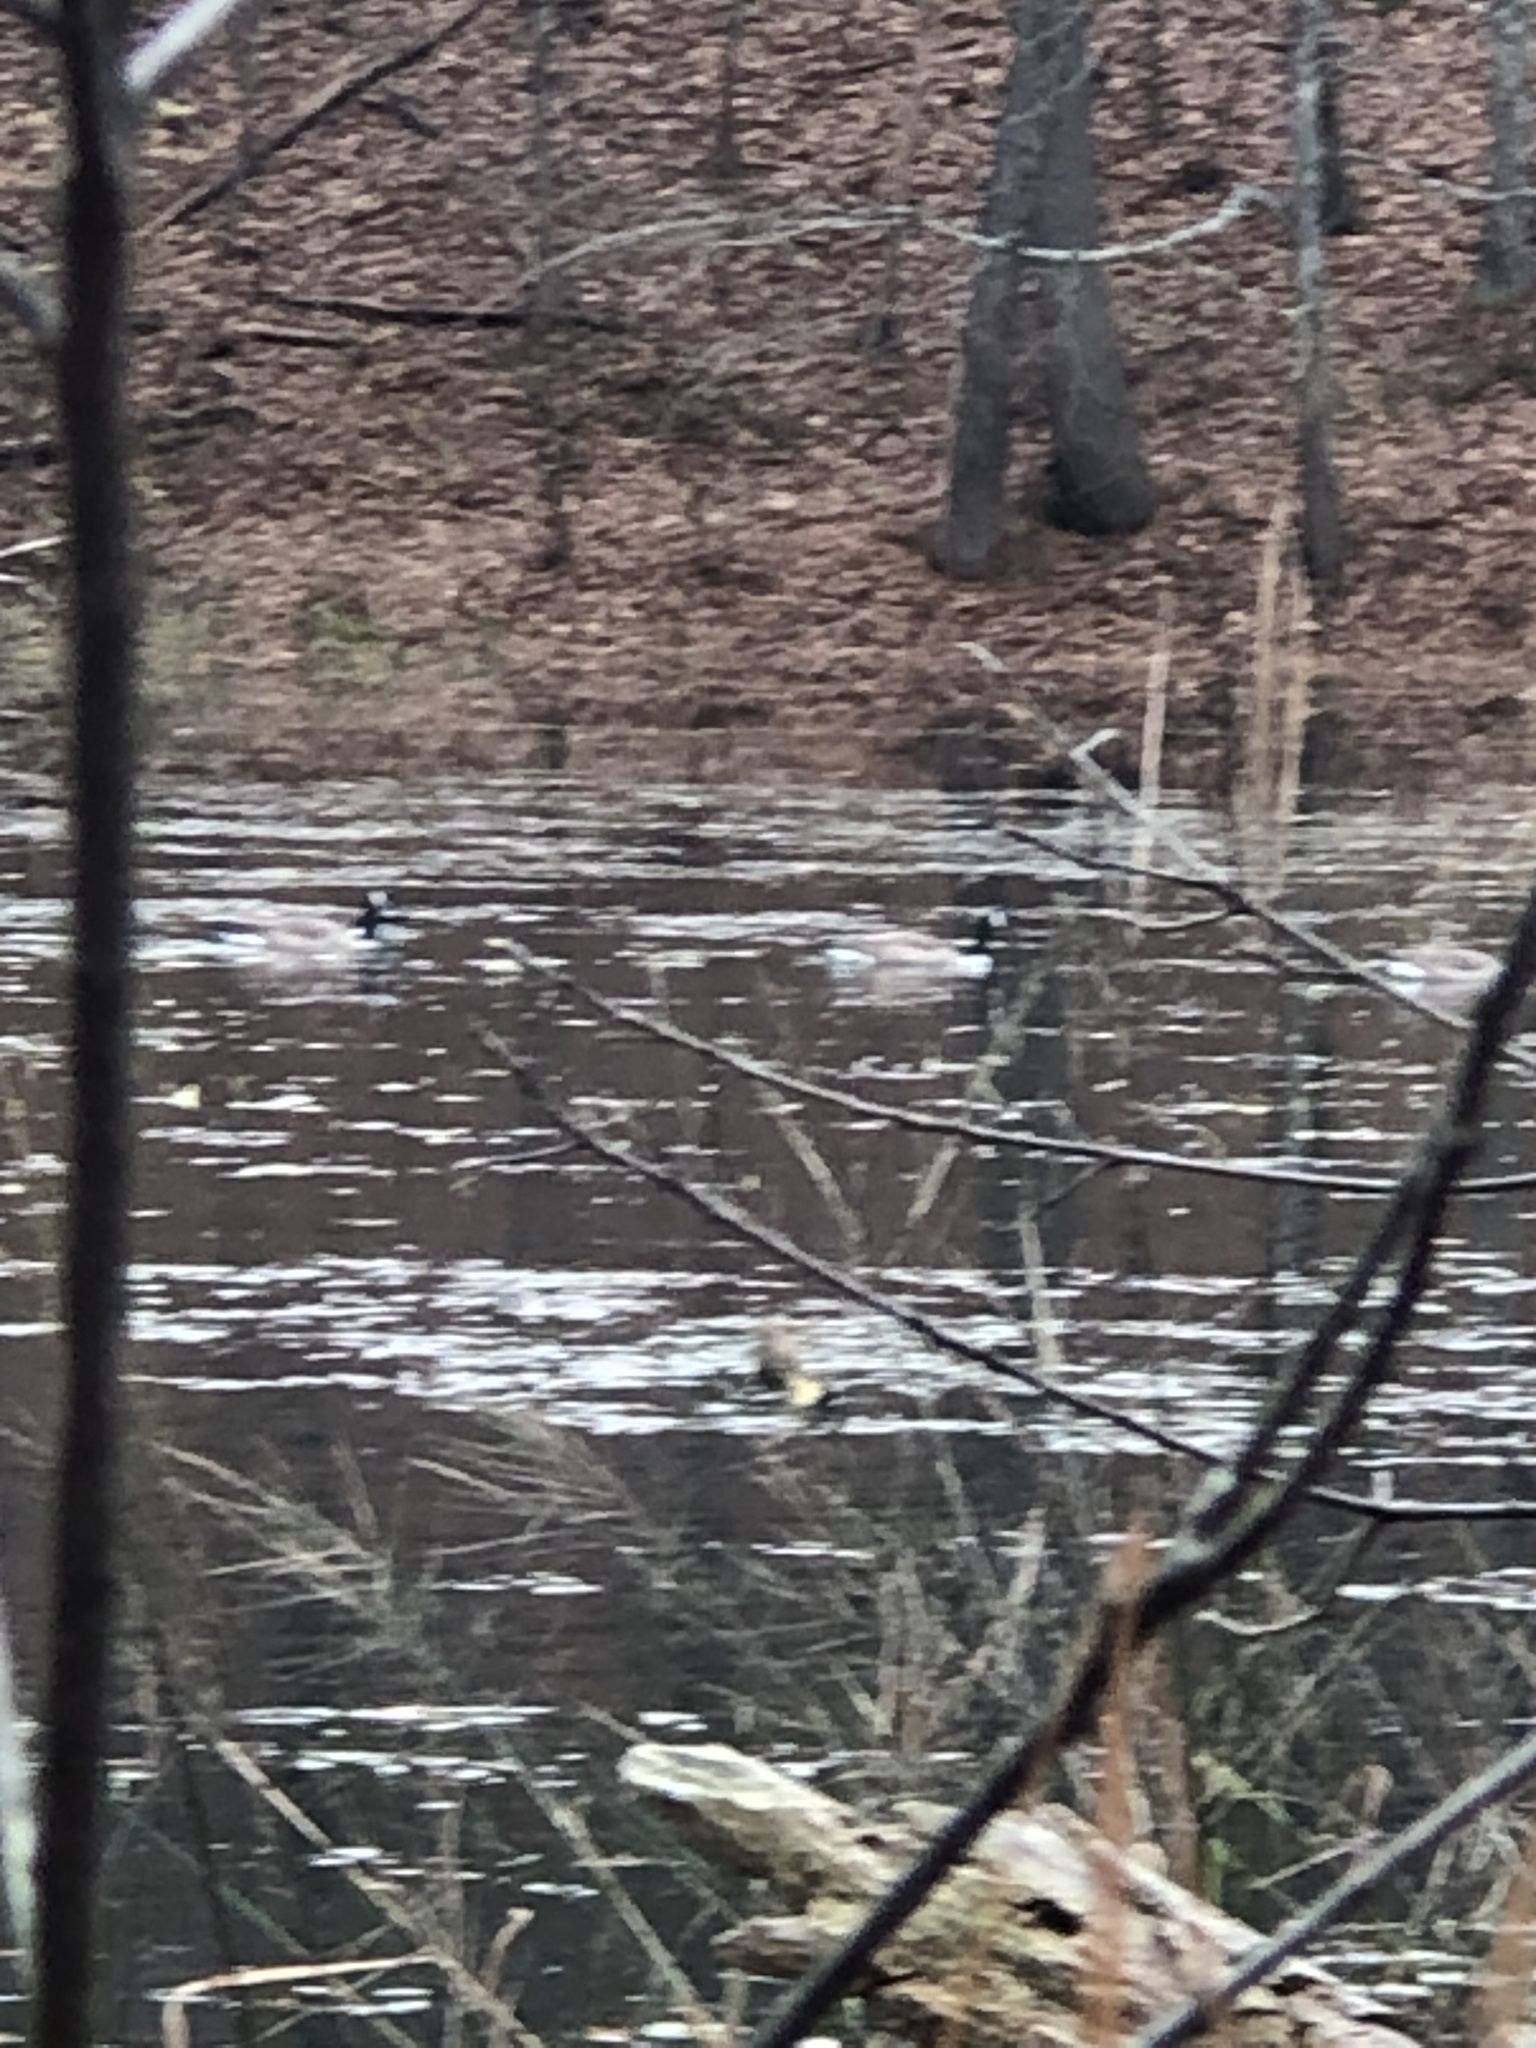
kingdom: Animalia
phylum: Chordata
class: Aves
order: Anseriformes
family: Anatidae
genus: Branta
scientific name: Branta canadensis
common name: Canada goose
